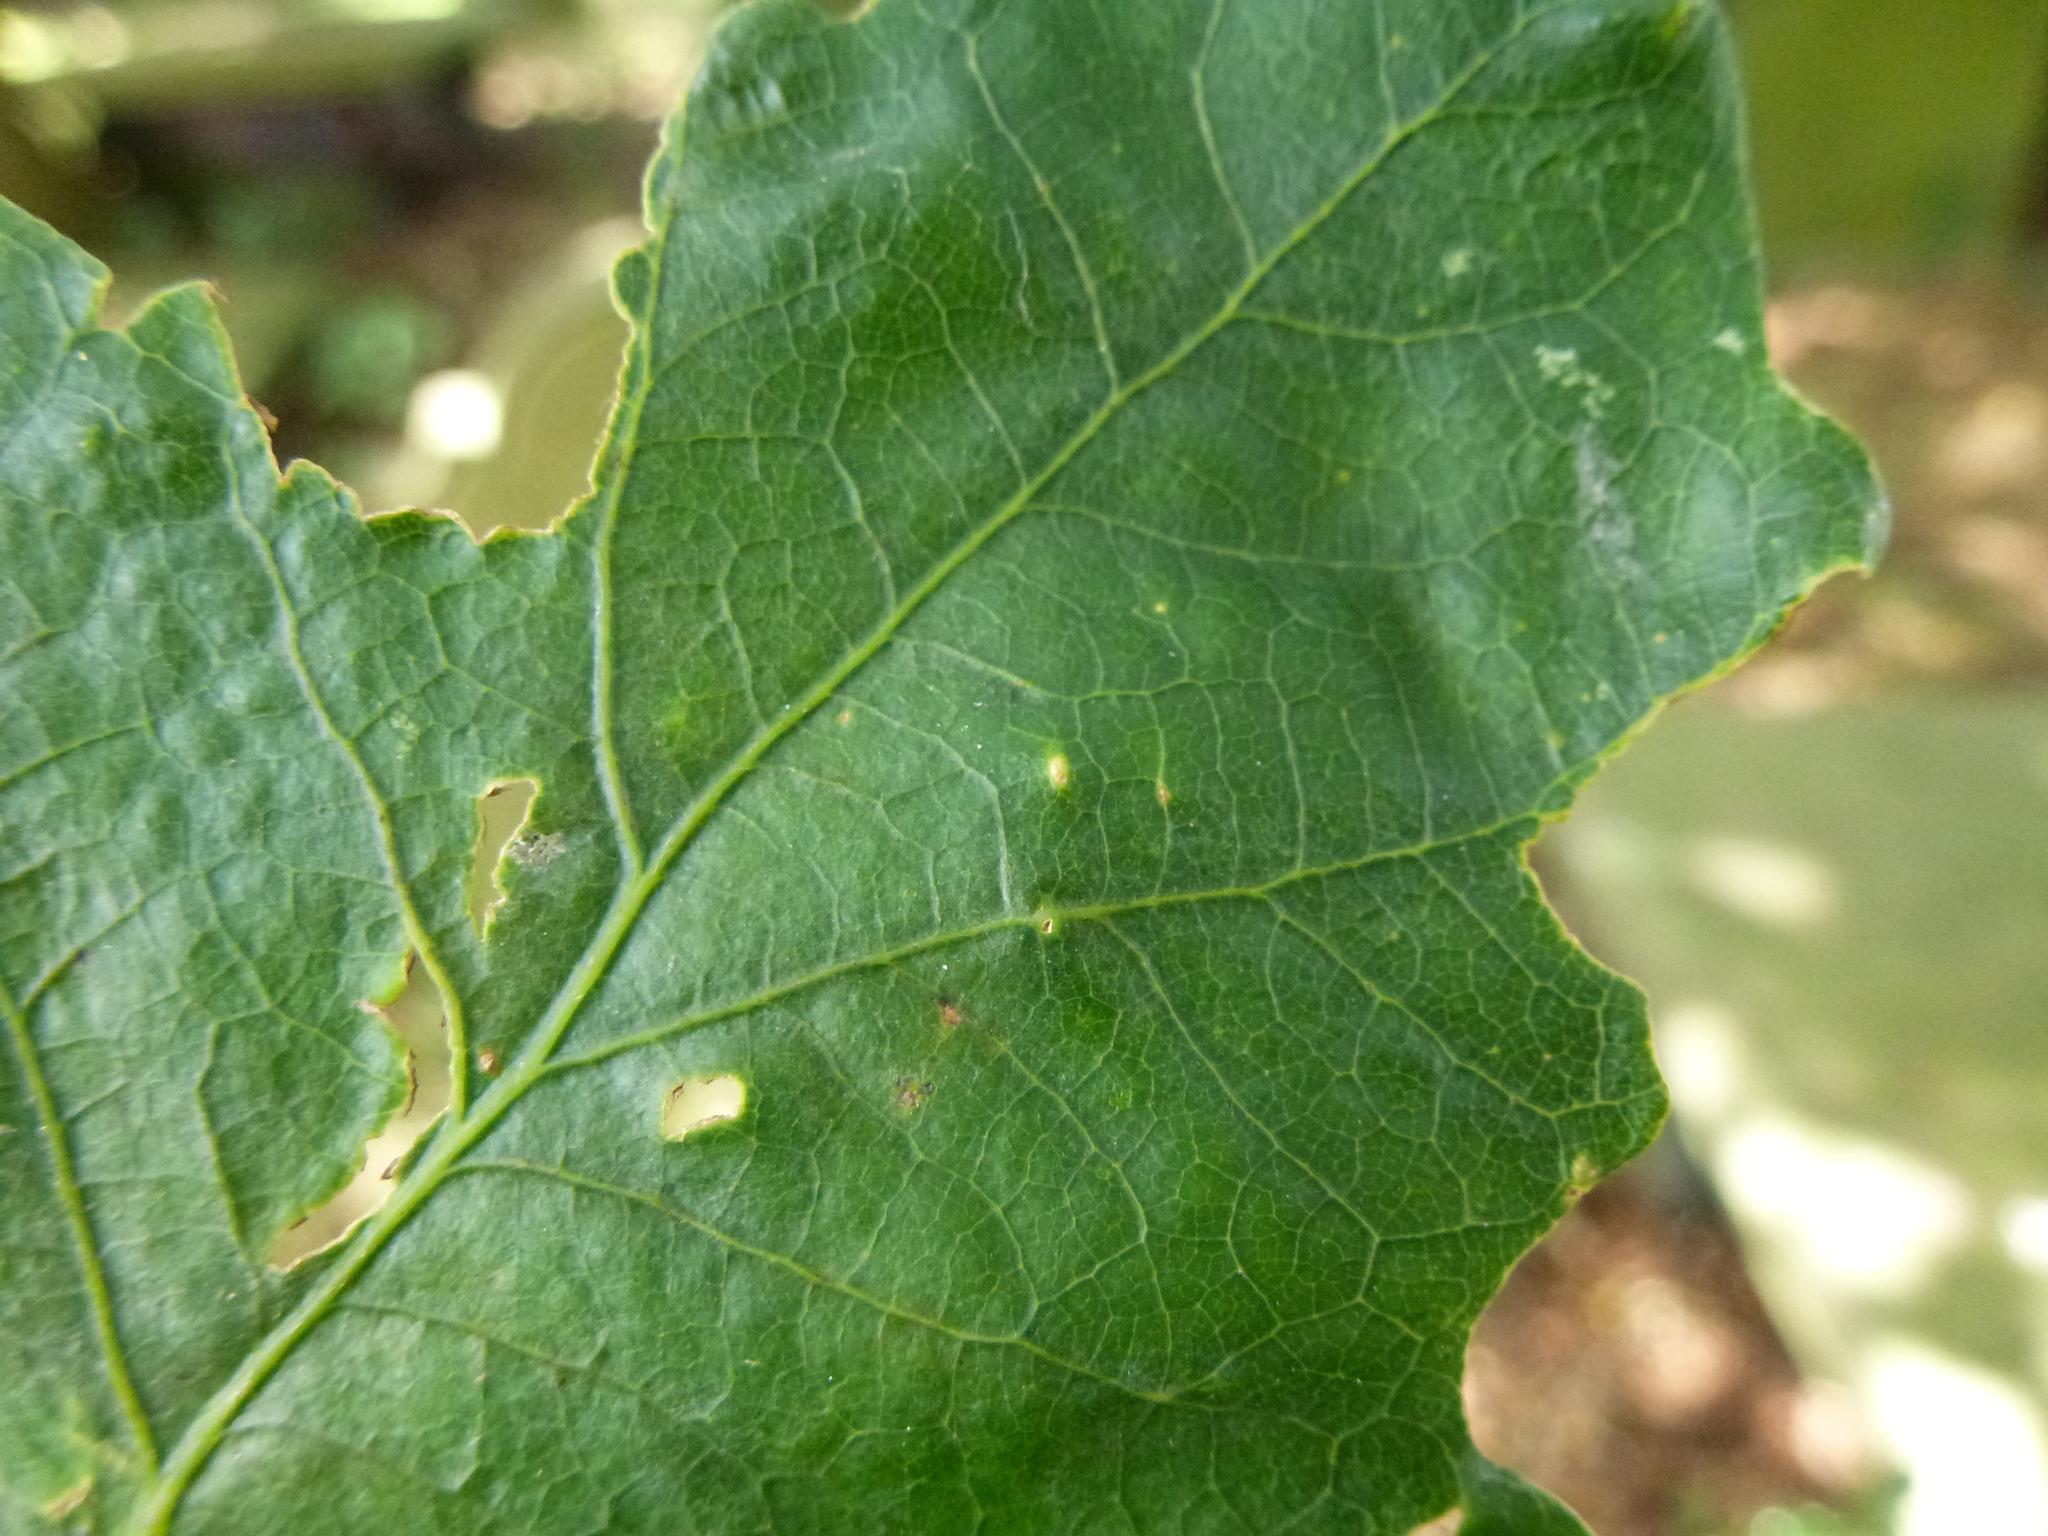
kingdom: Animalia
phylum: Arthropoda
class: Insecta
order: Hemiptera
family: Triozidae
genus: Trioza
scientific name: Trioza remota
